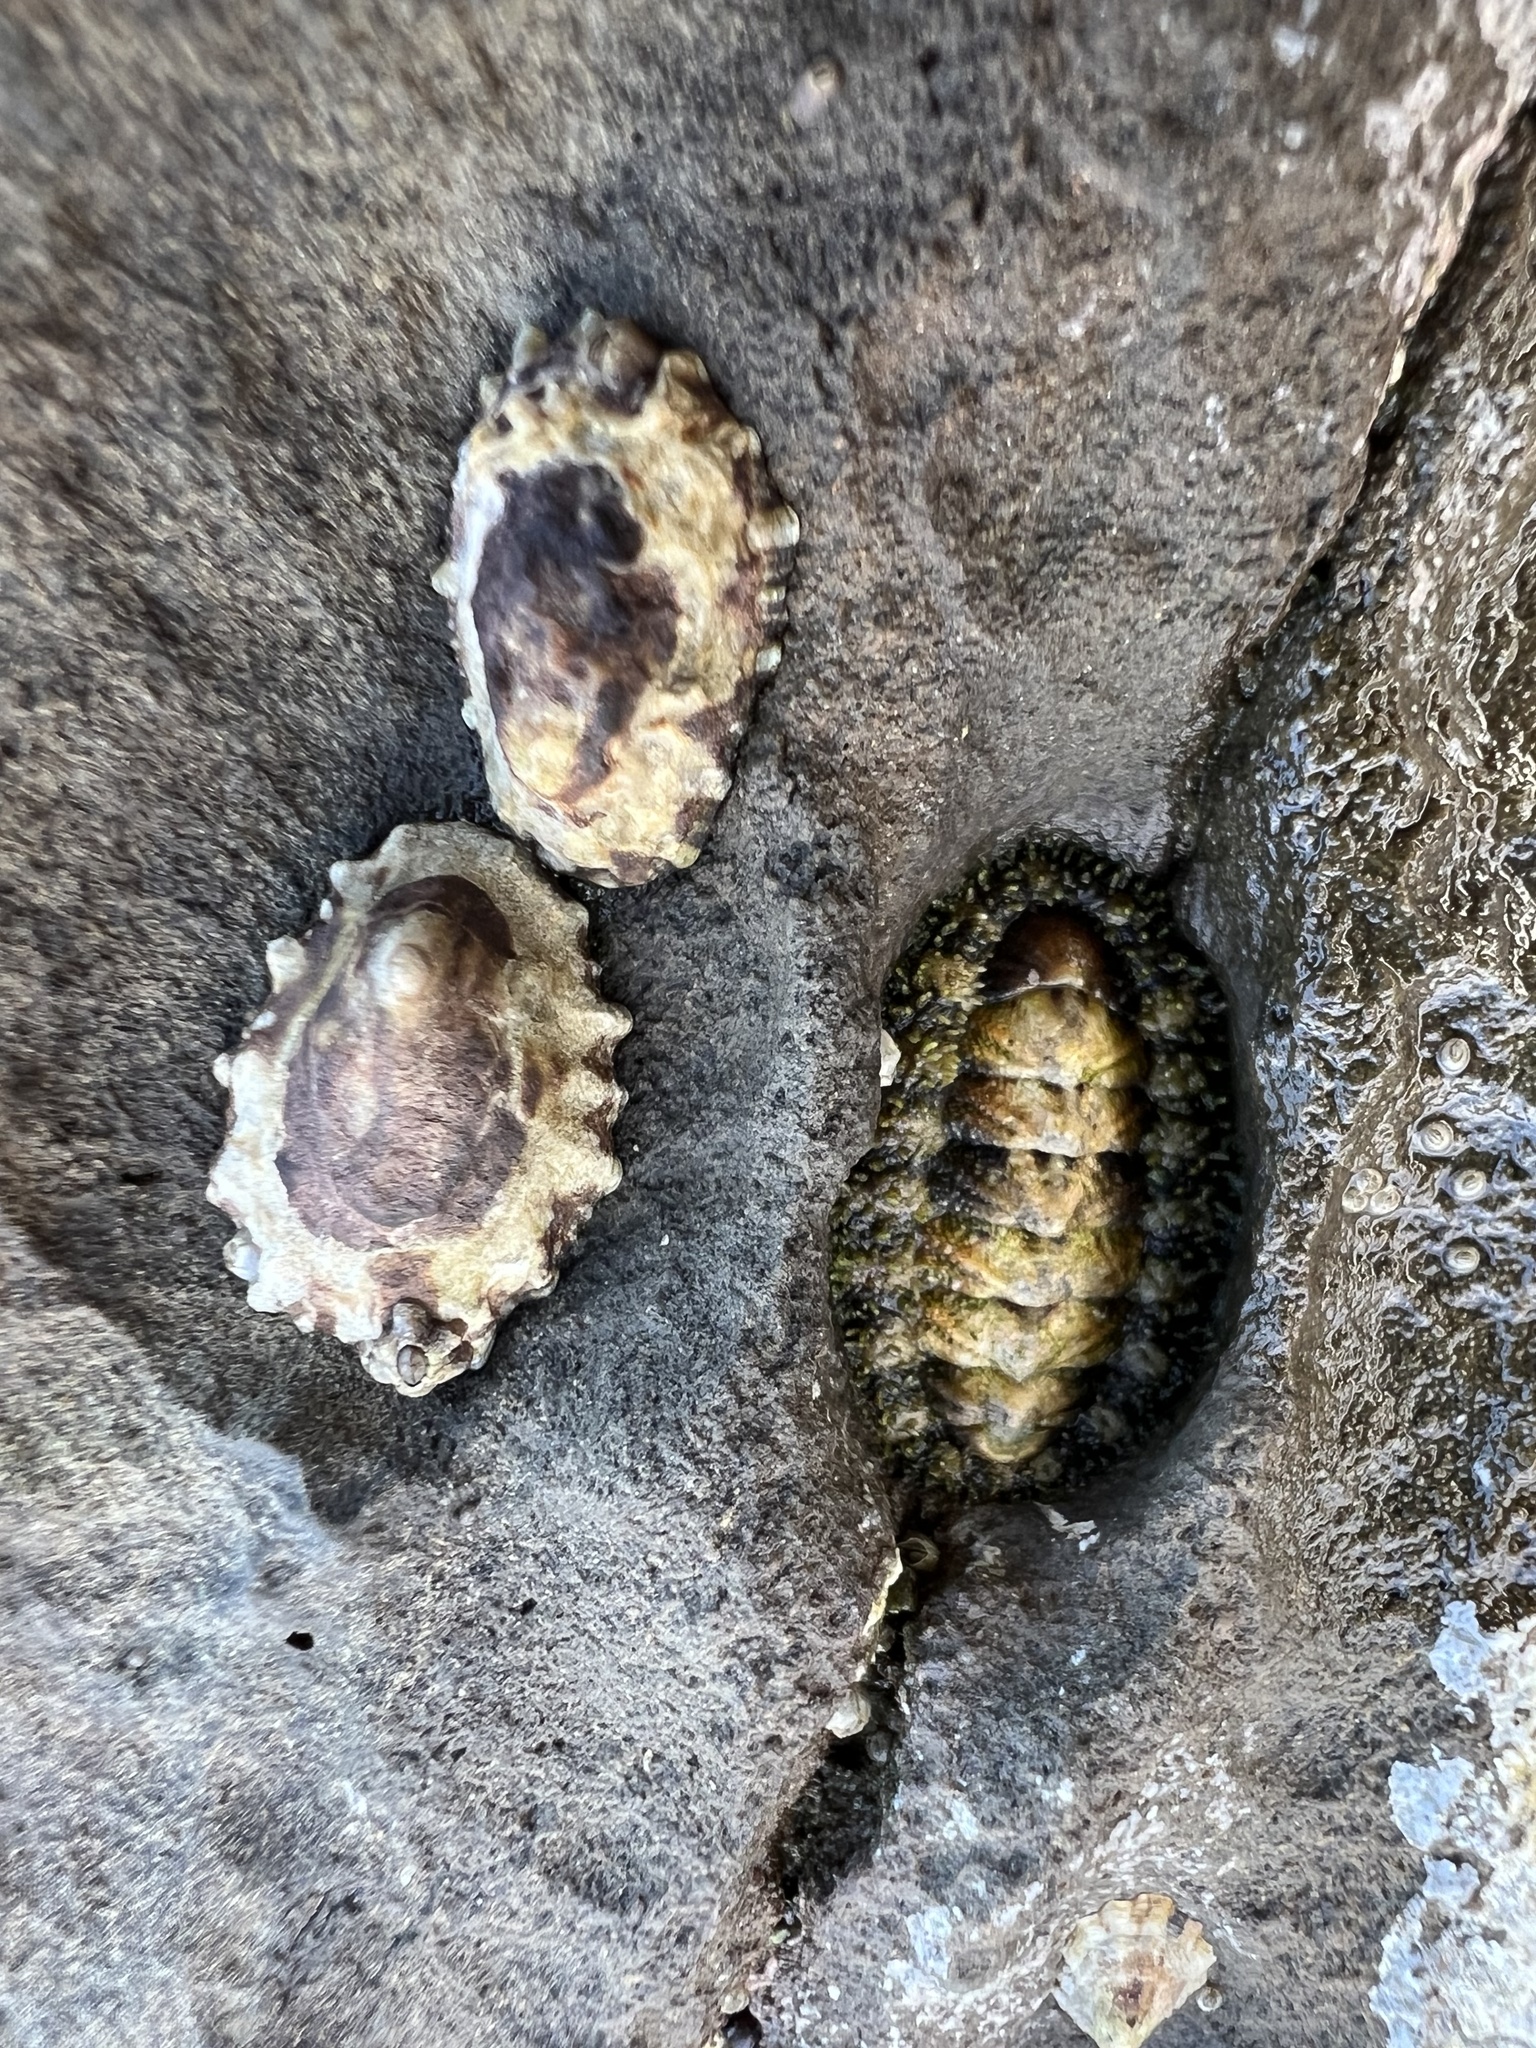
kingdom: Animalia
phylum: Mollusca
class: Polyplacophora
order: Chitonida
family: Tonicellidae
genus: Nuttallina
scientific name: Nuttallina californica
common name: California nuttall chiton
